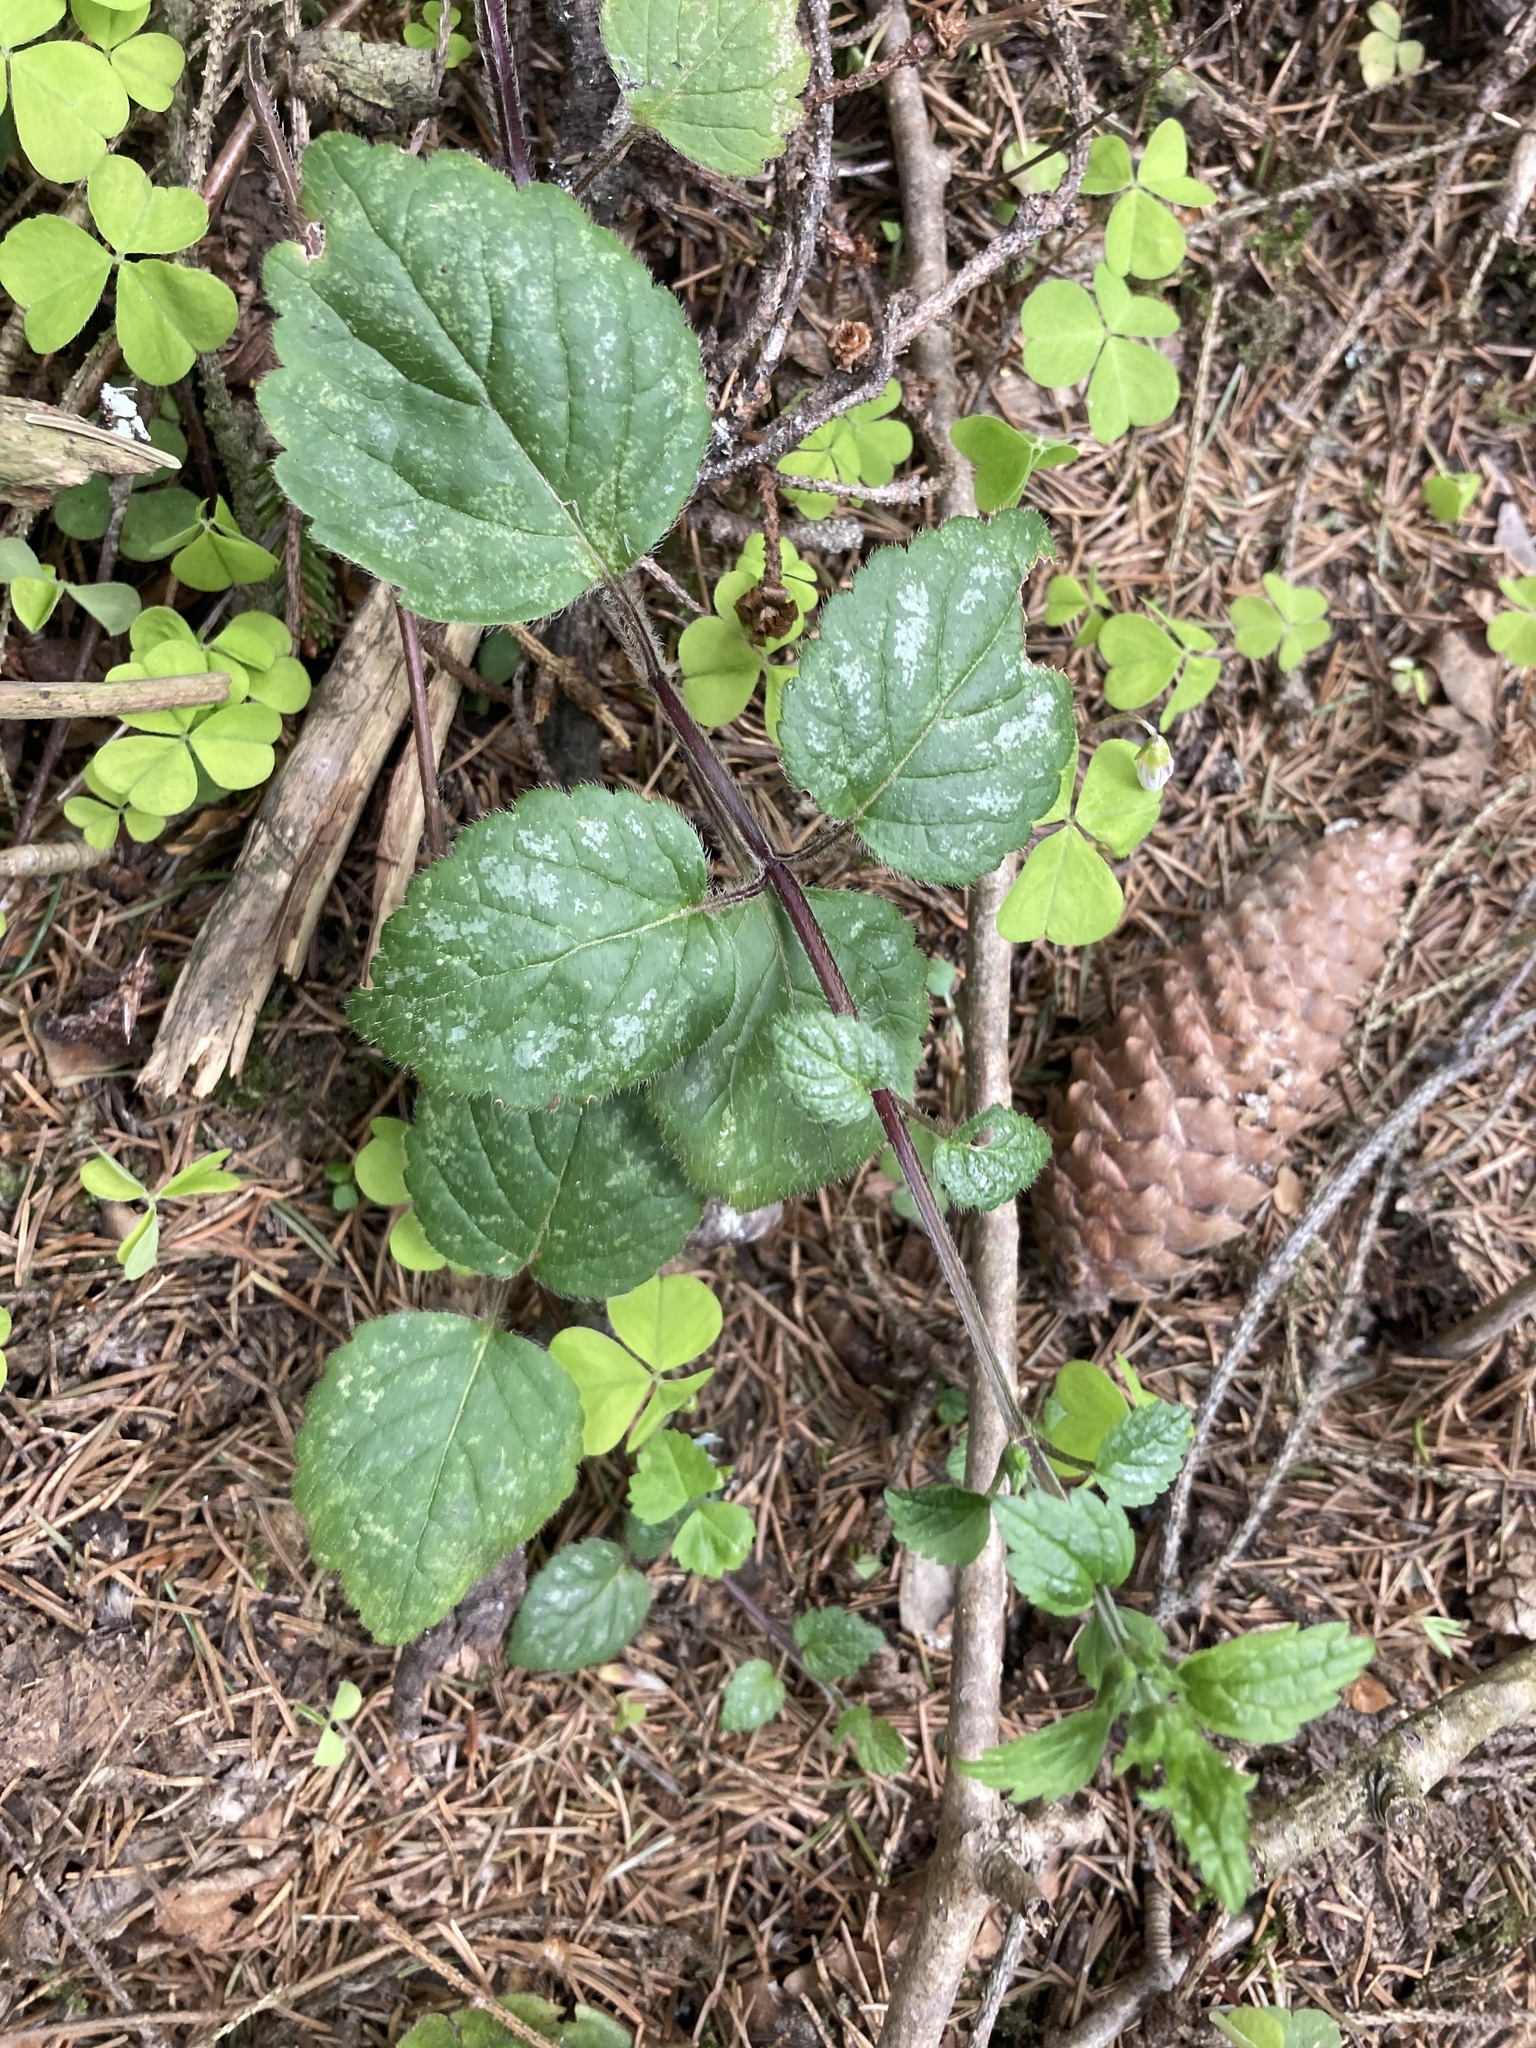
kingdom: Plantae
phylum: Tracheophyta
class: Magnoliopsida
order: Lamiales
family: Lamiaceae
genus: Lamium
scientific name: Lamium galeobdolon
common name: Yellow archangel
